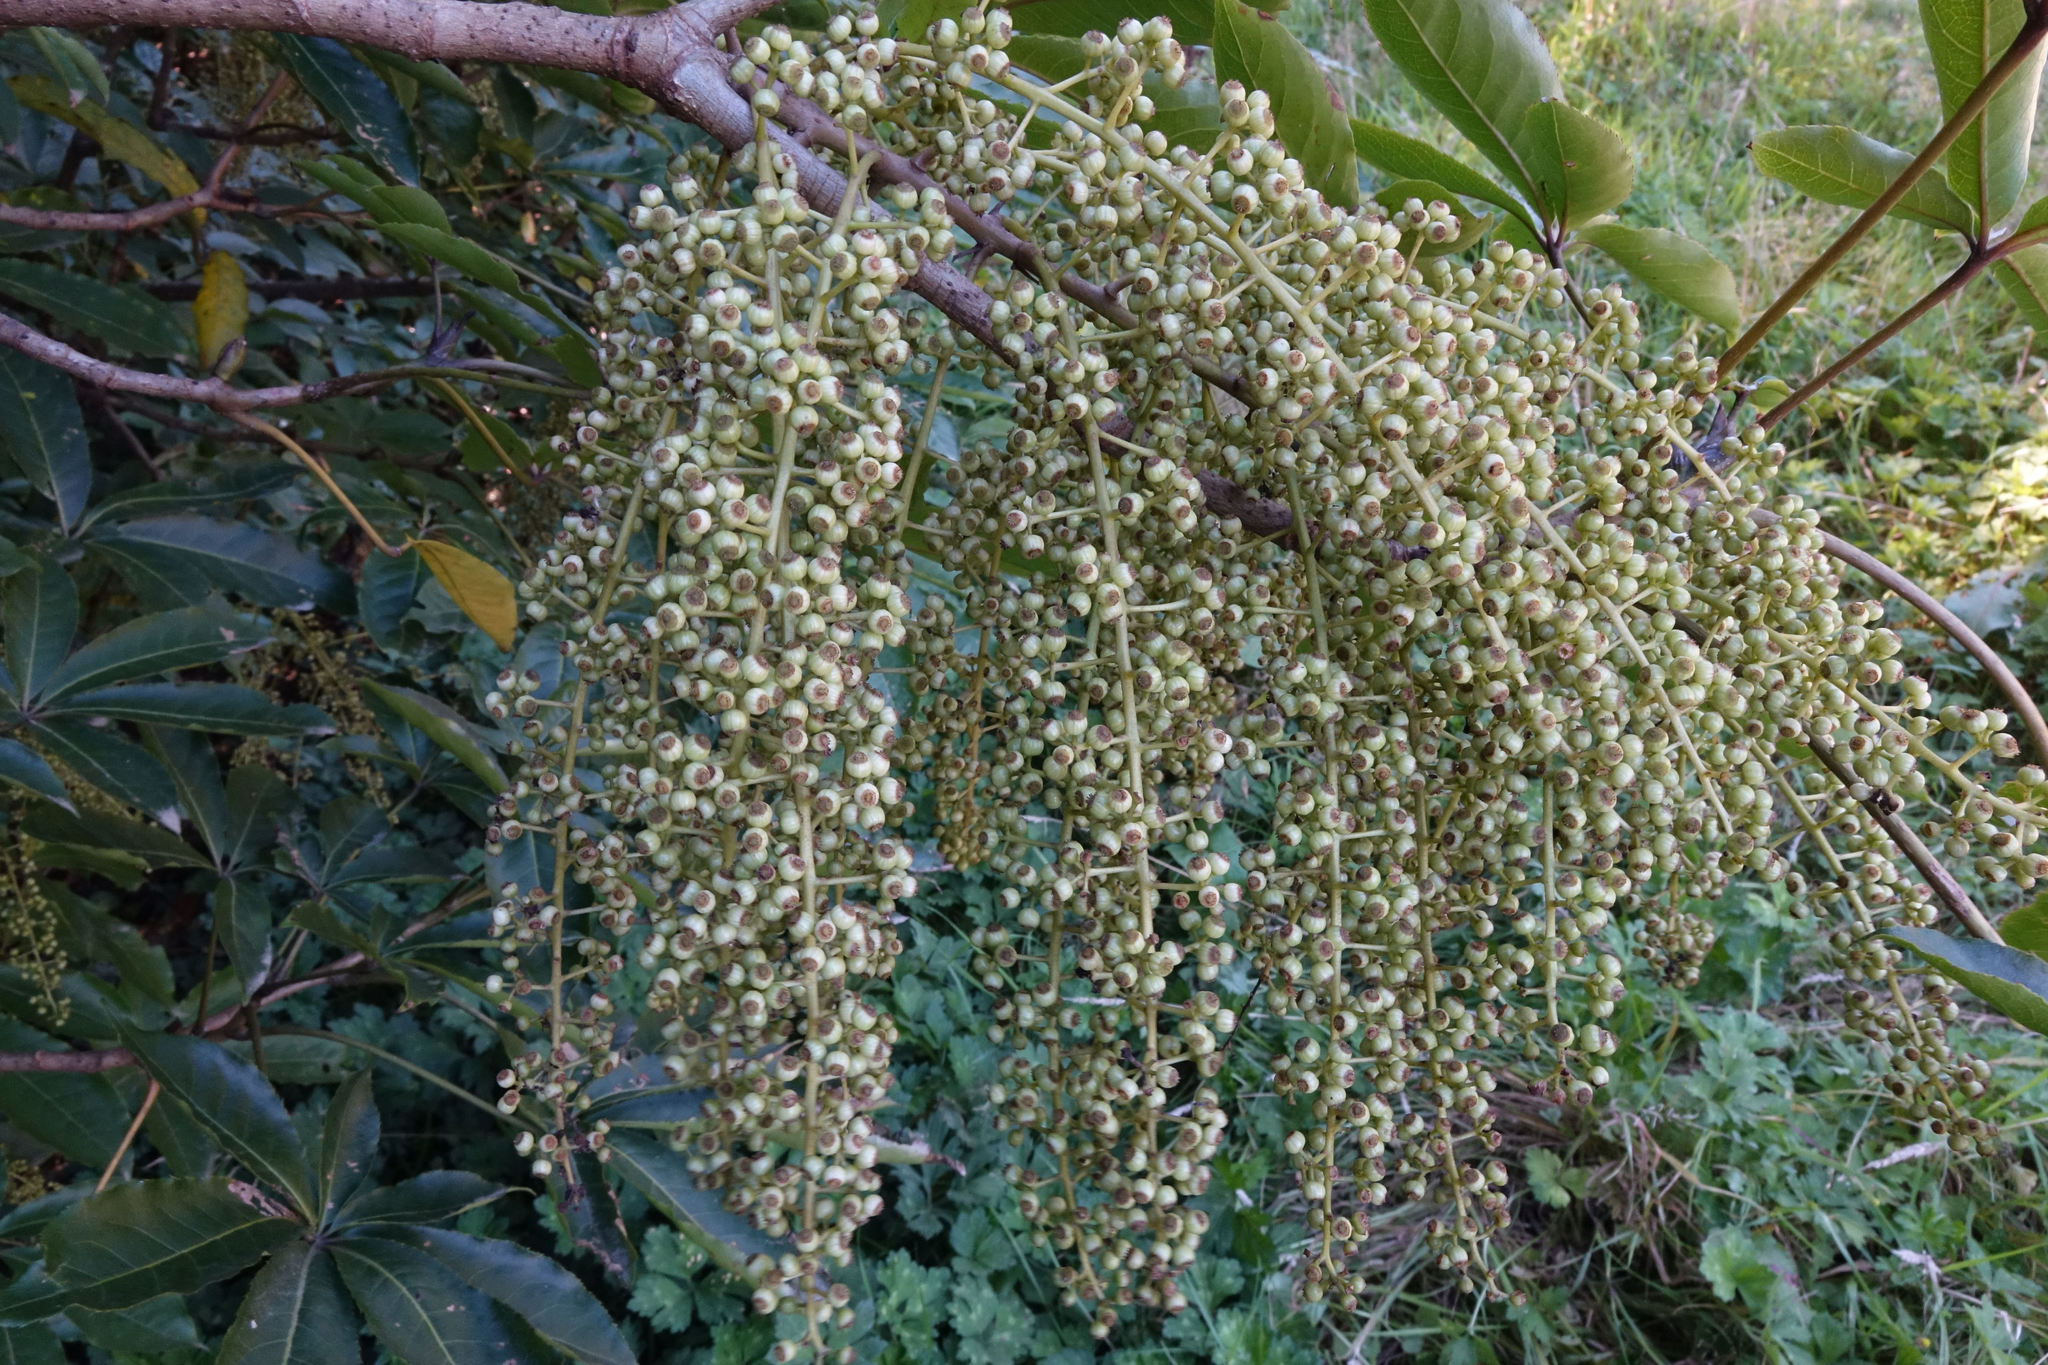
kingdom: Plantae
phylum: Tracheophyta
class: Magnoliopsida
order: Apiales
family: Araliaceae
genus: Schefflera
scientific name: Schefflera digitata
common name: Pate
